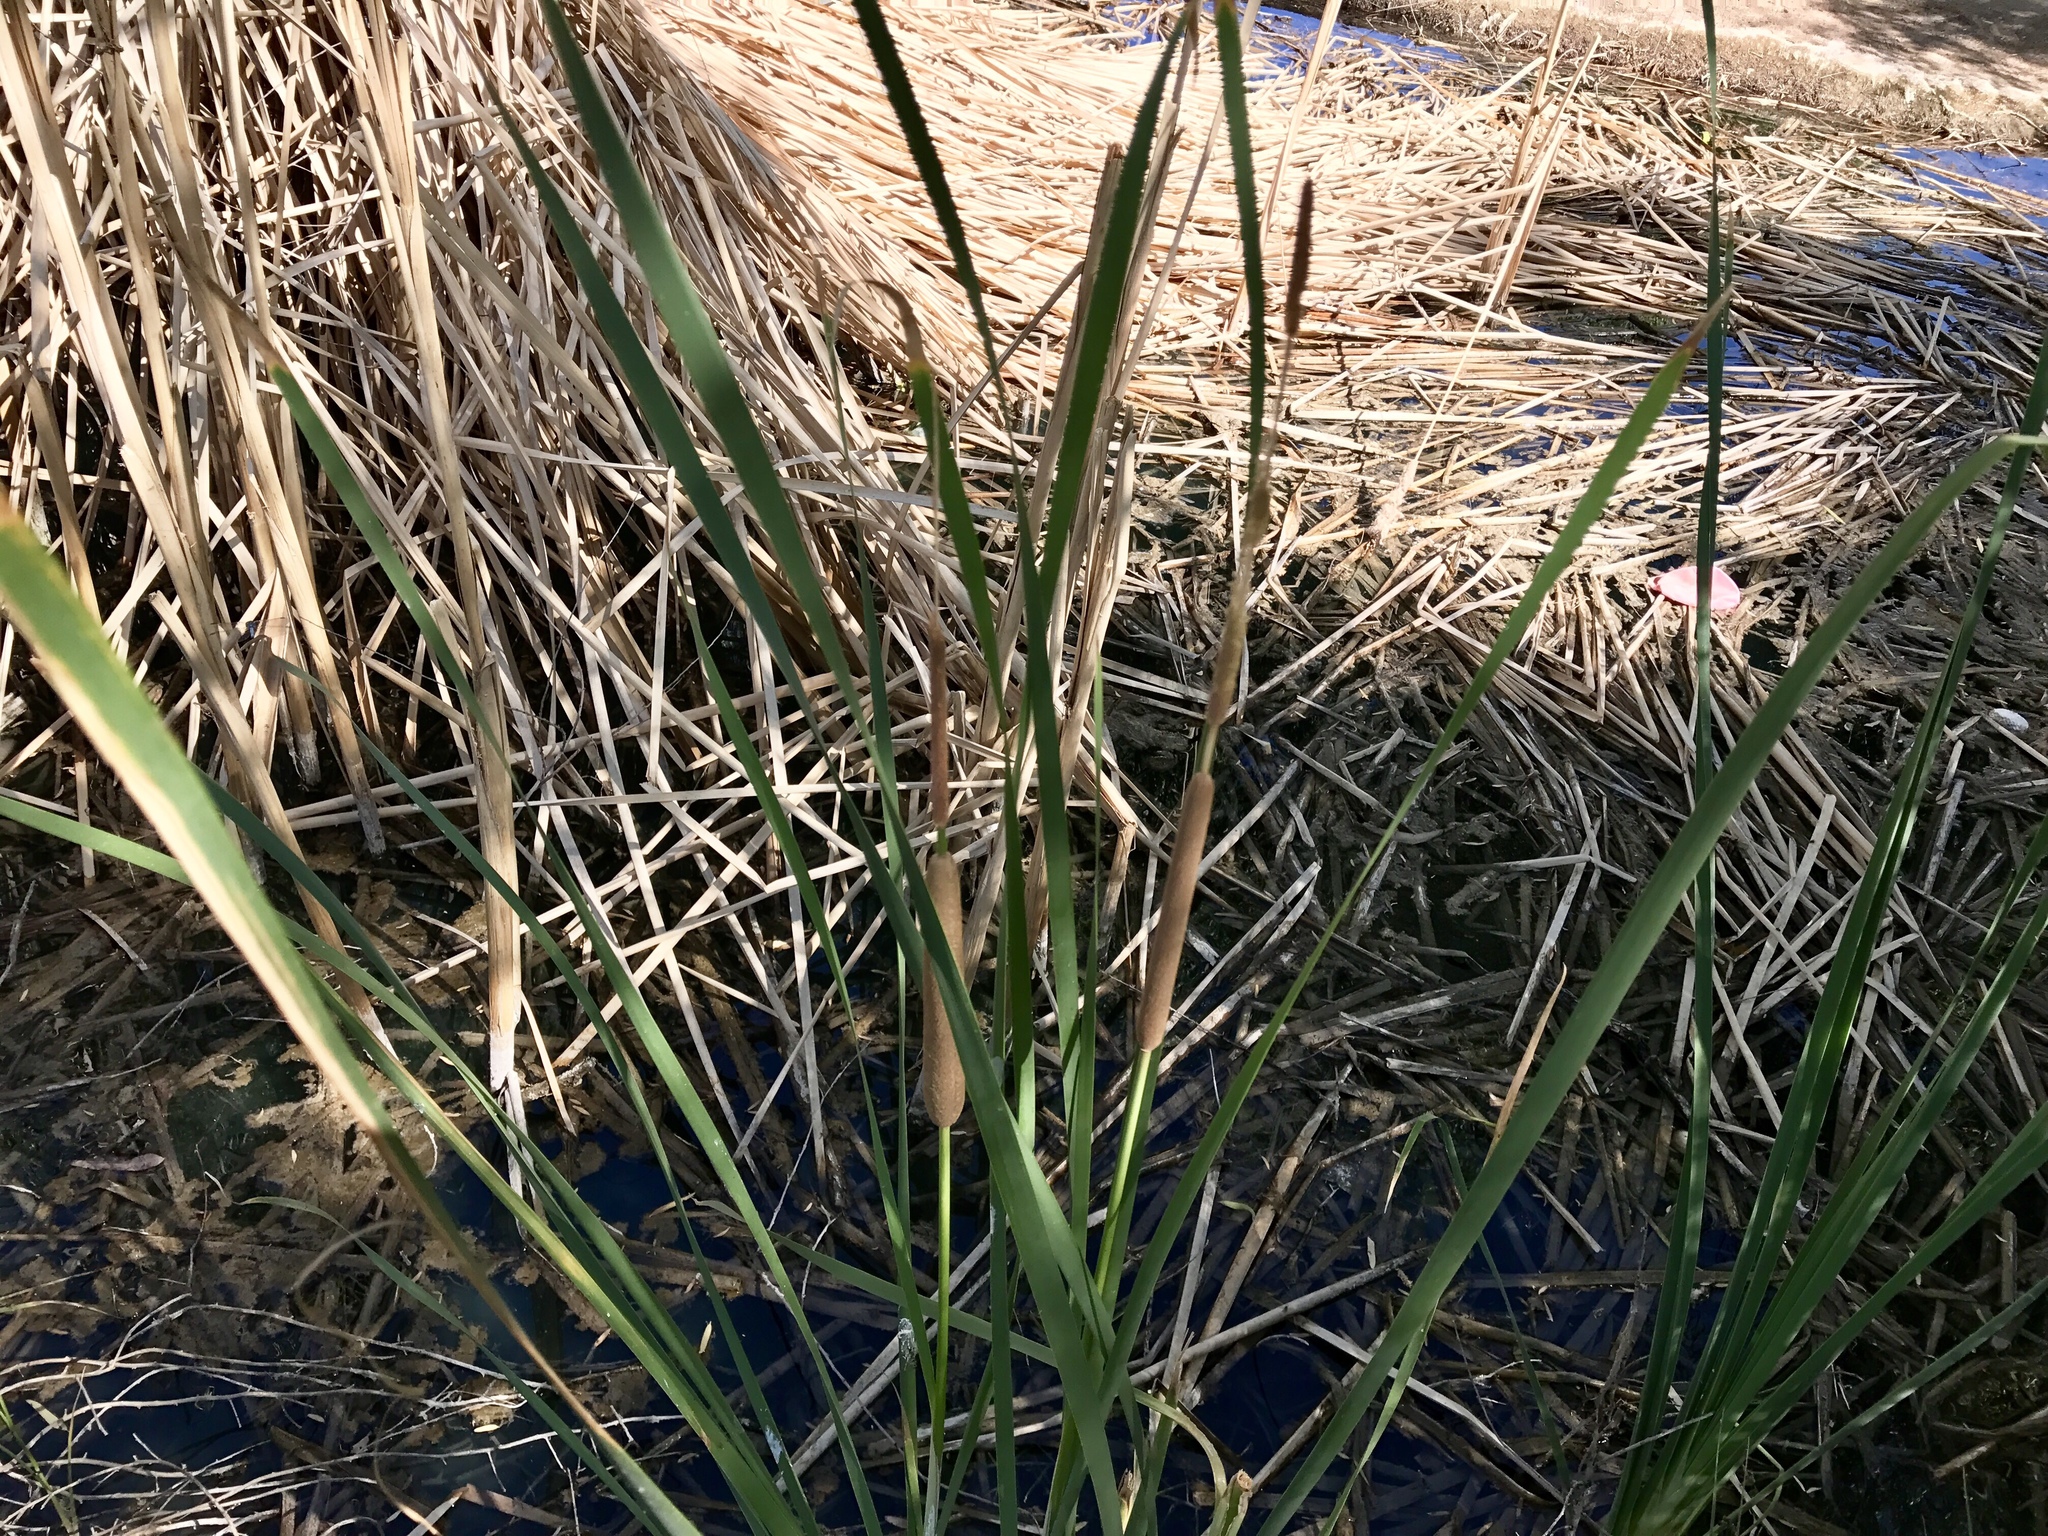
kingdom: Plantae
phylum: Tracheophyta
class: Liliopsida
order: Poales
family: Typhaceae
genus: Typha
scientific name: Typha latifolia
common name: Broadleaf cattail
